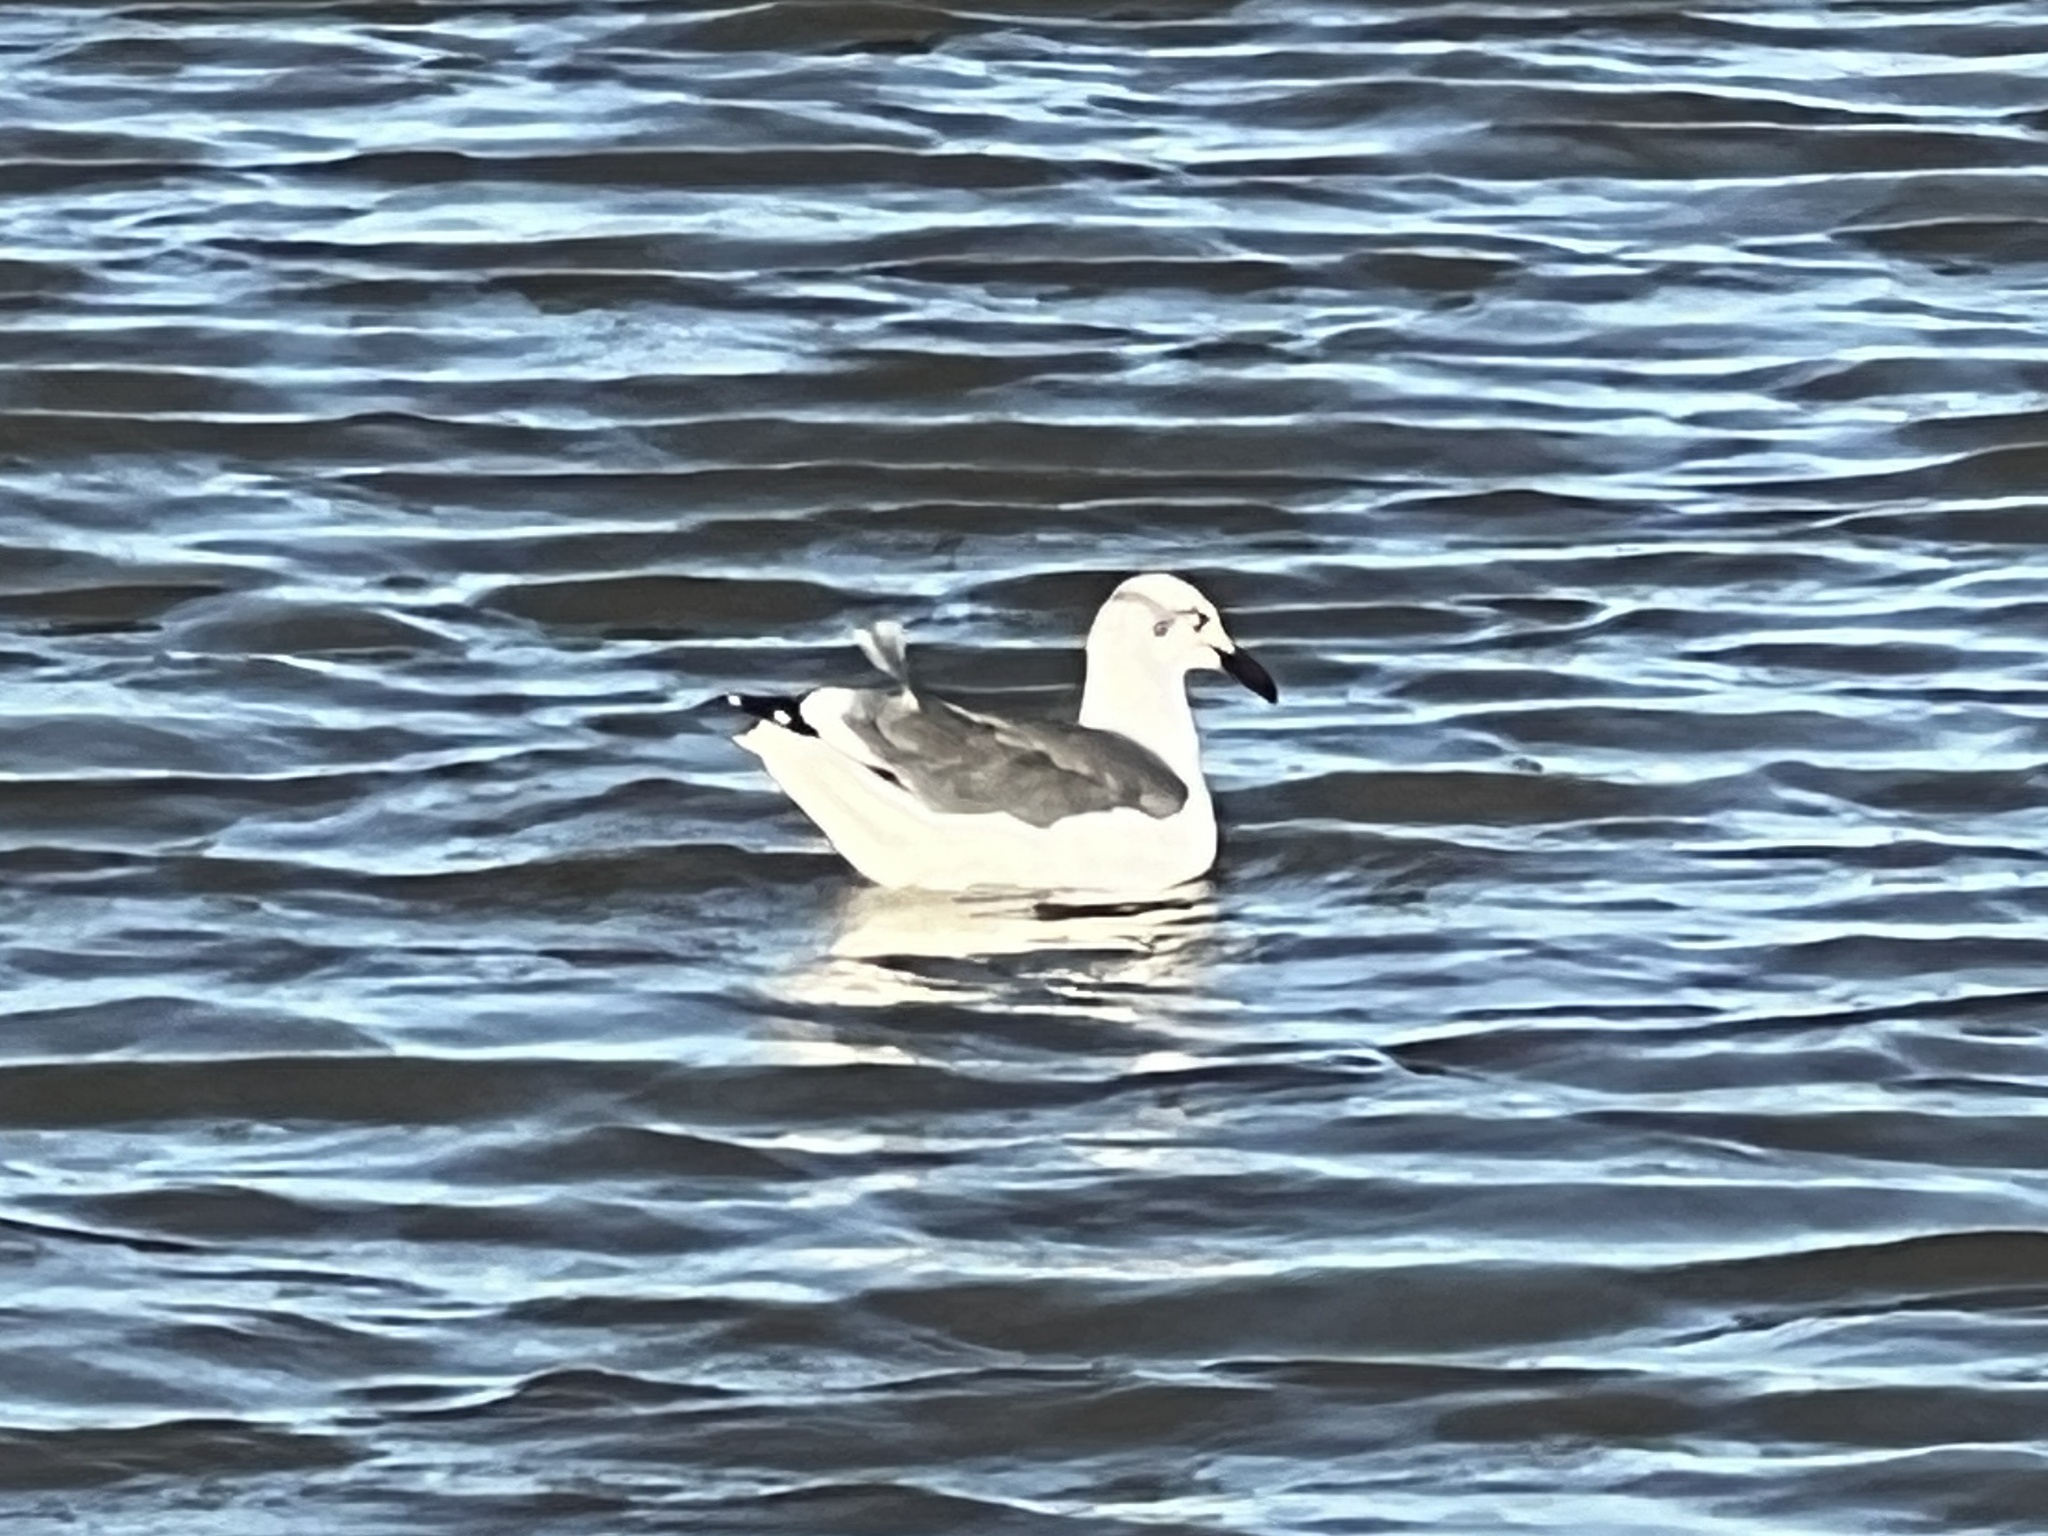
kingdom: Animalia
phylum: Chordata
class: Aves
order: Charadriiformes
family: Laridae
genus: Leucophaeus
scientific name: Leucophaeus atricilla
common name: Laughing gull
